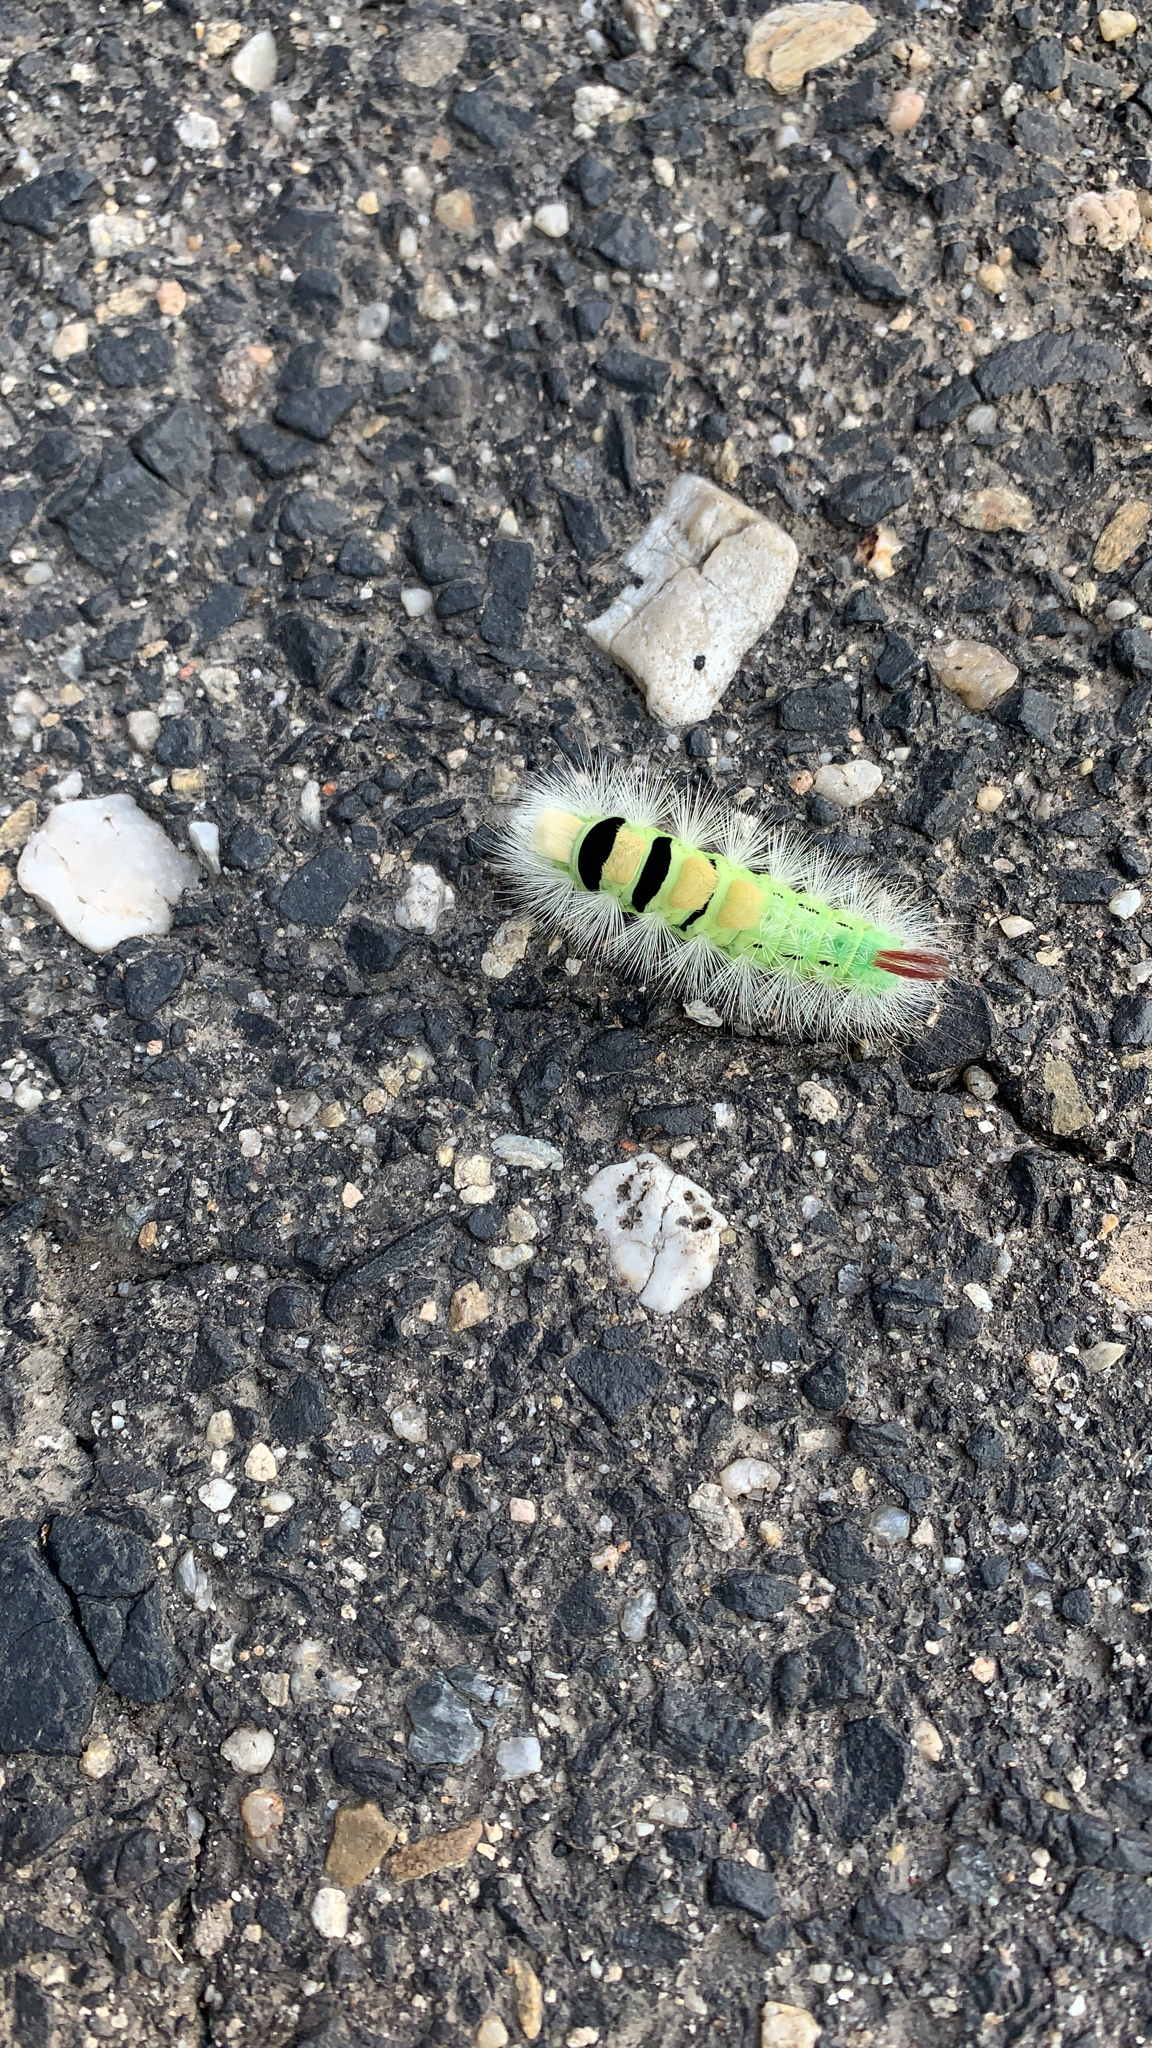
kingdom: Animalia
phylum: Arthropoda
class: Insecta
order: Lepidoptera
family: Erebidae
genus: Calliteara
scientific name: Calliteara pudibunda
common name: Pale tussock
